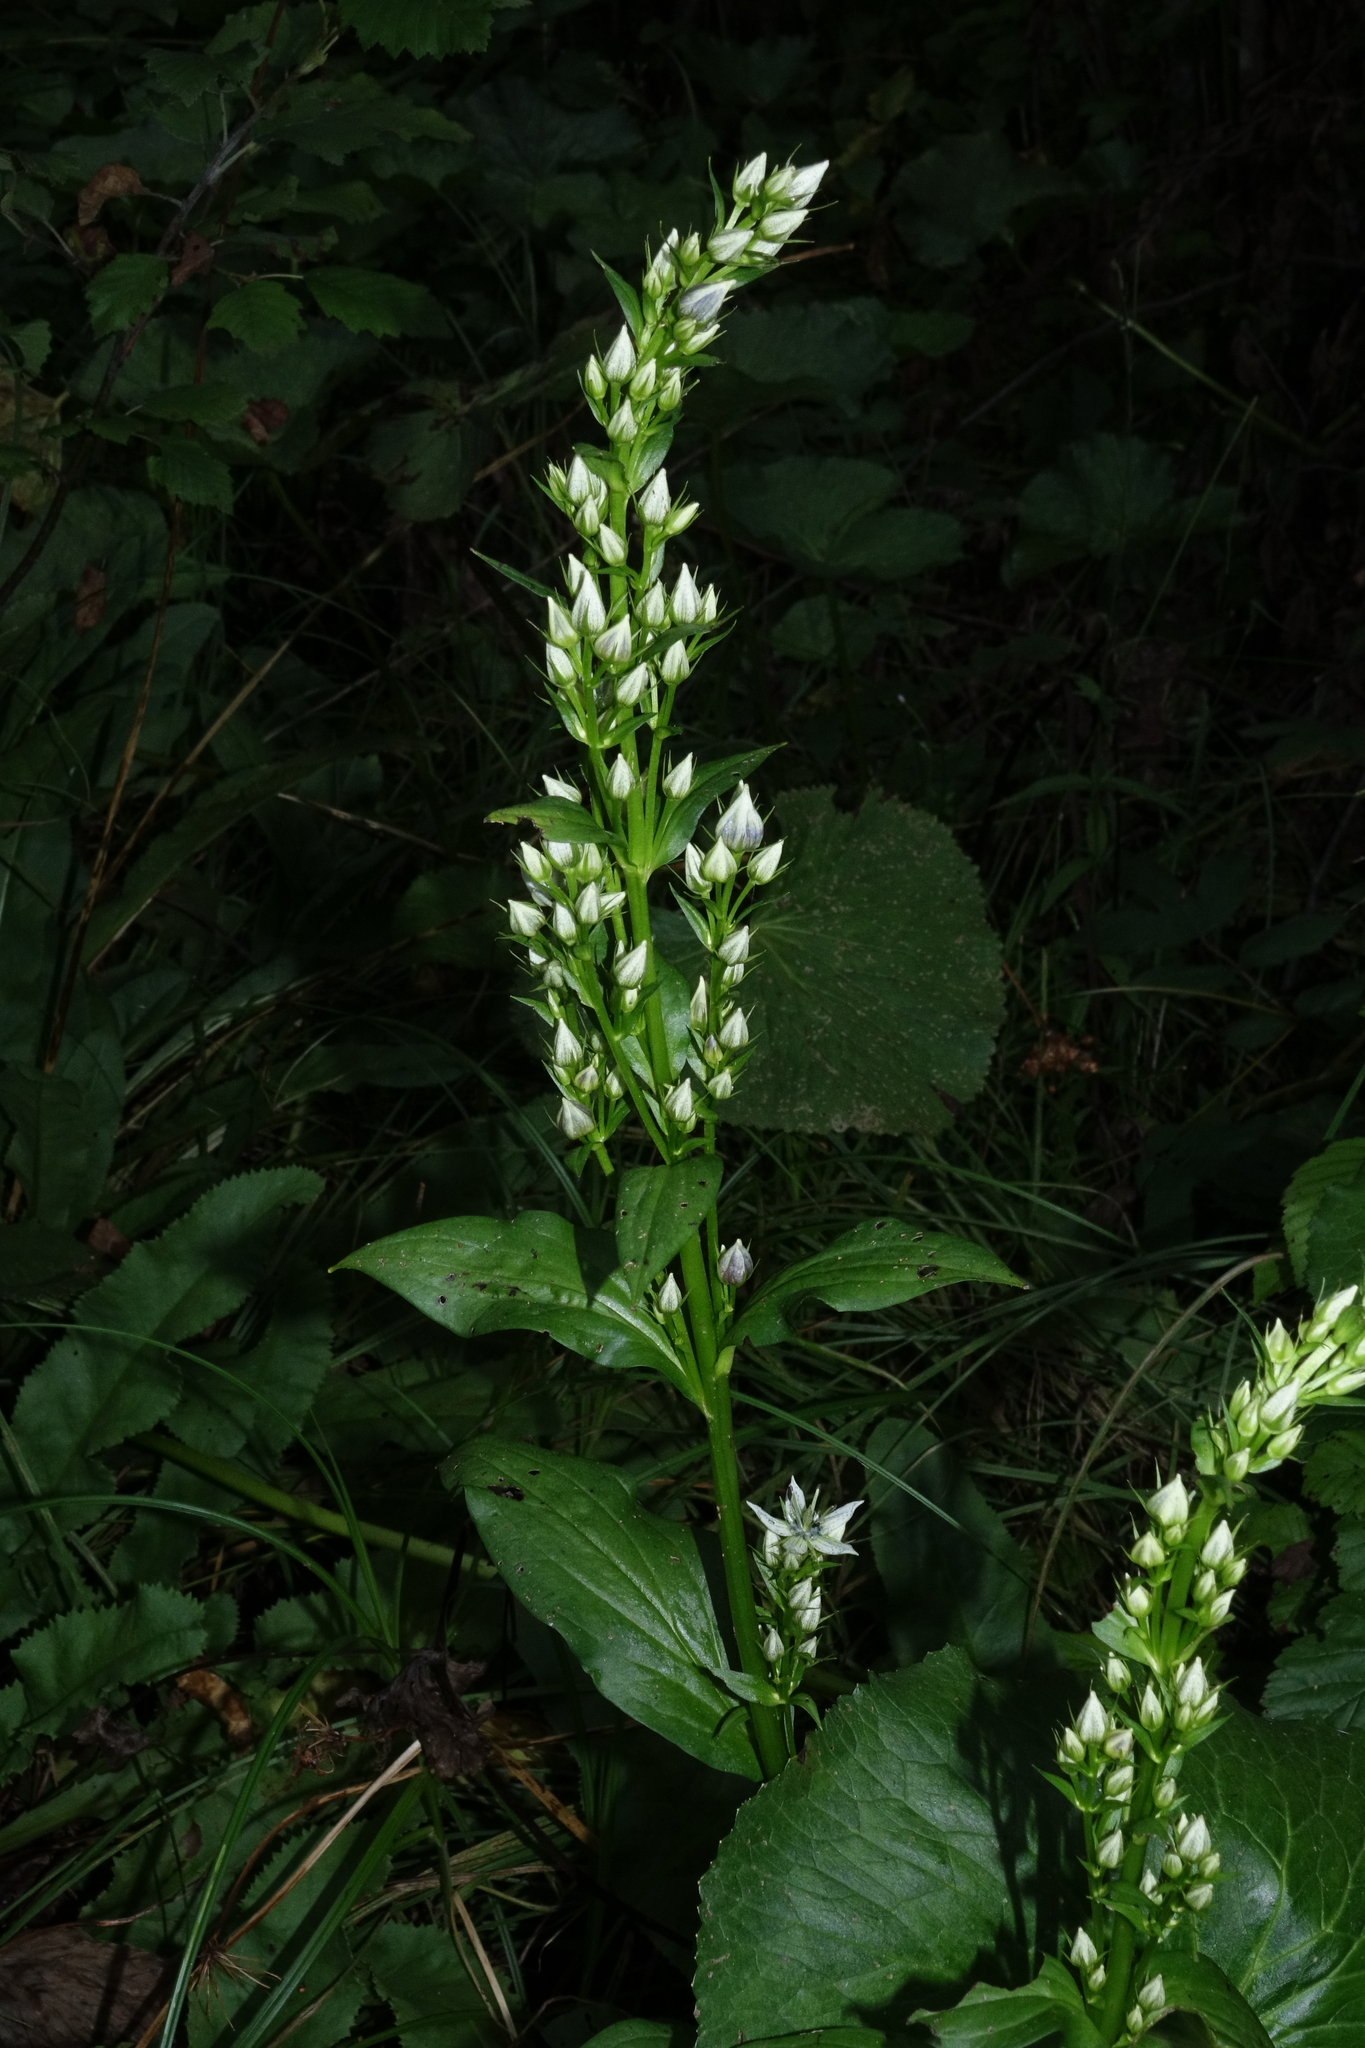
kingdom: Plantae
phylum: Tracheophyta
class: Magnoliopsida
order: Gentianales
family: Gentianaceae
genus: Swertia
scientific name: Swertia iberica
